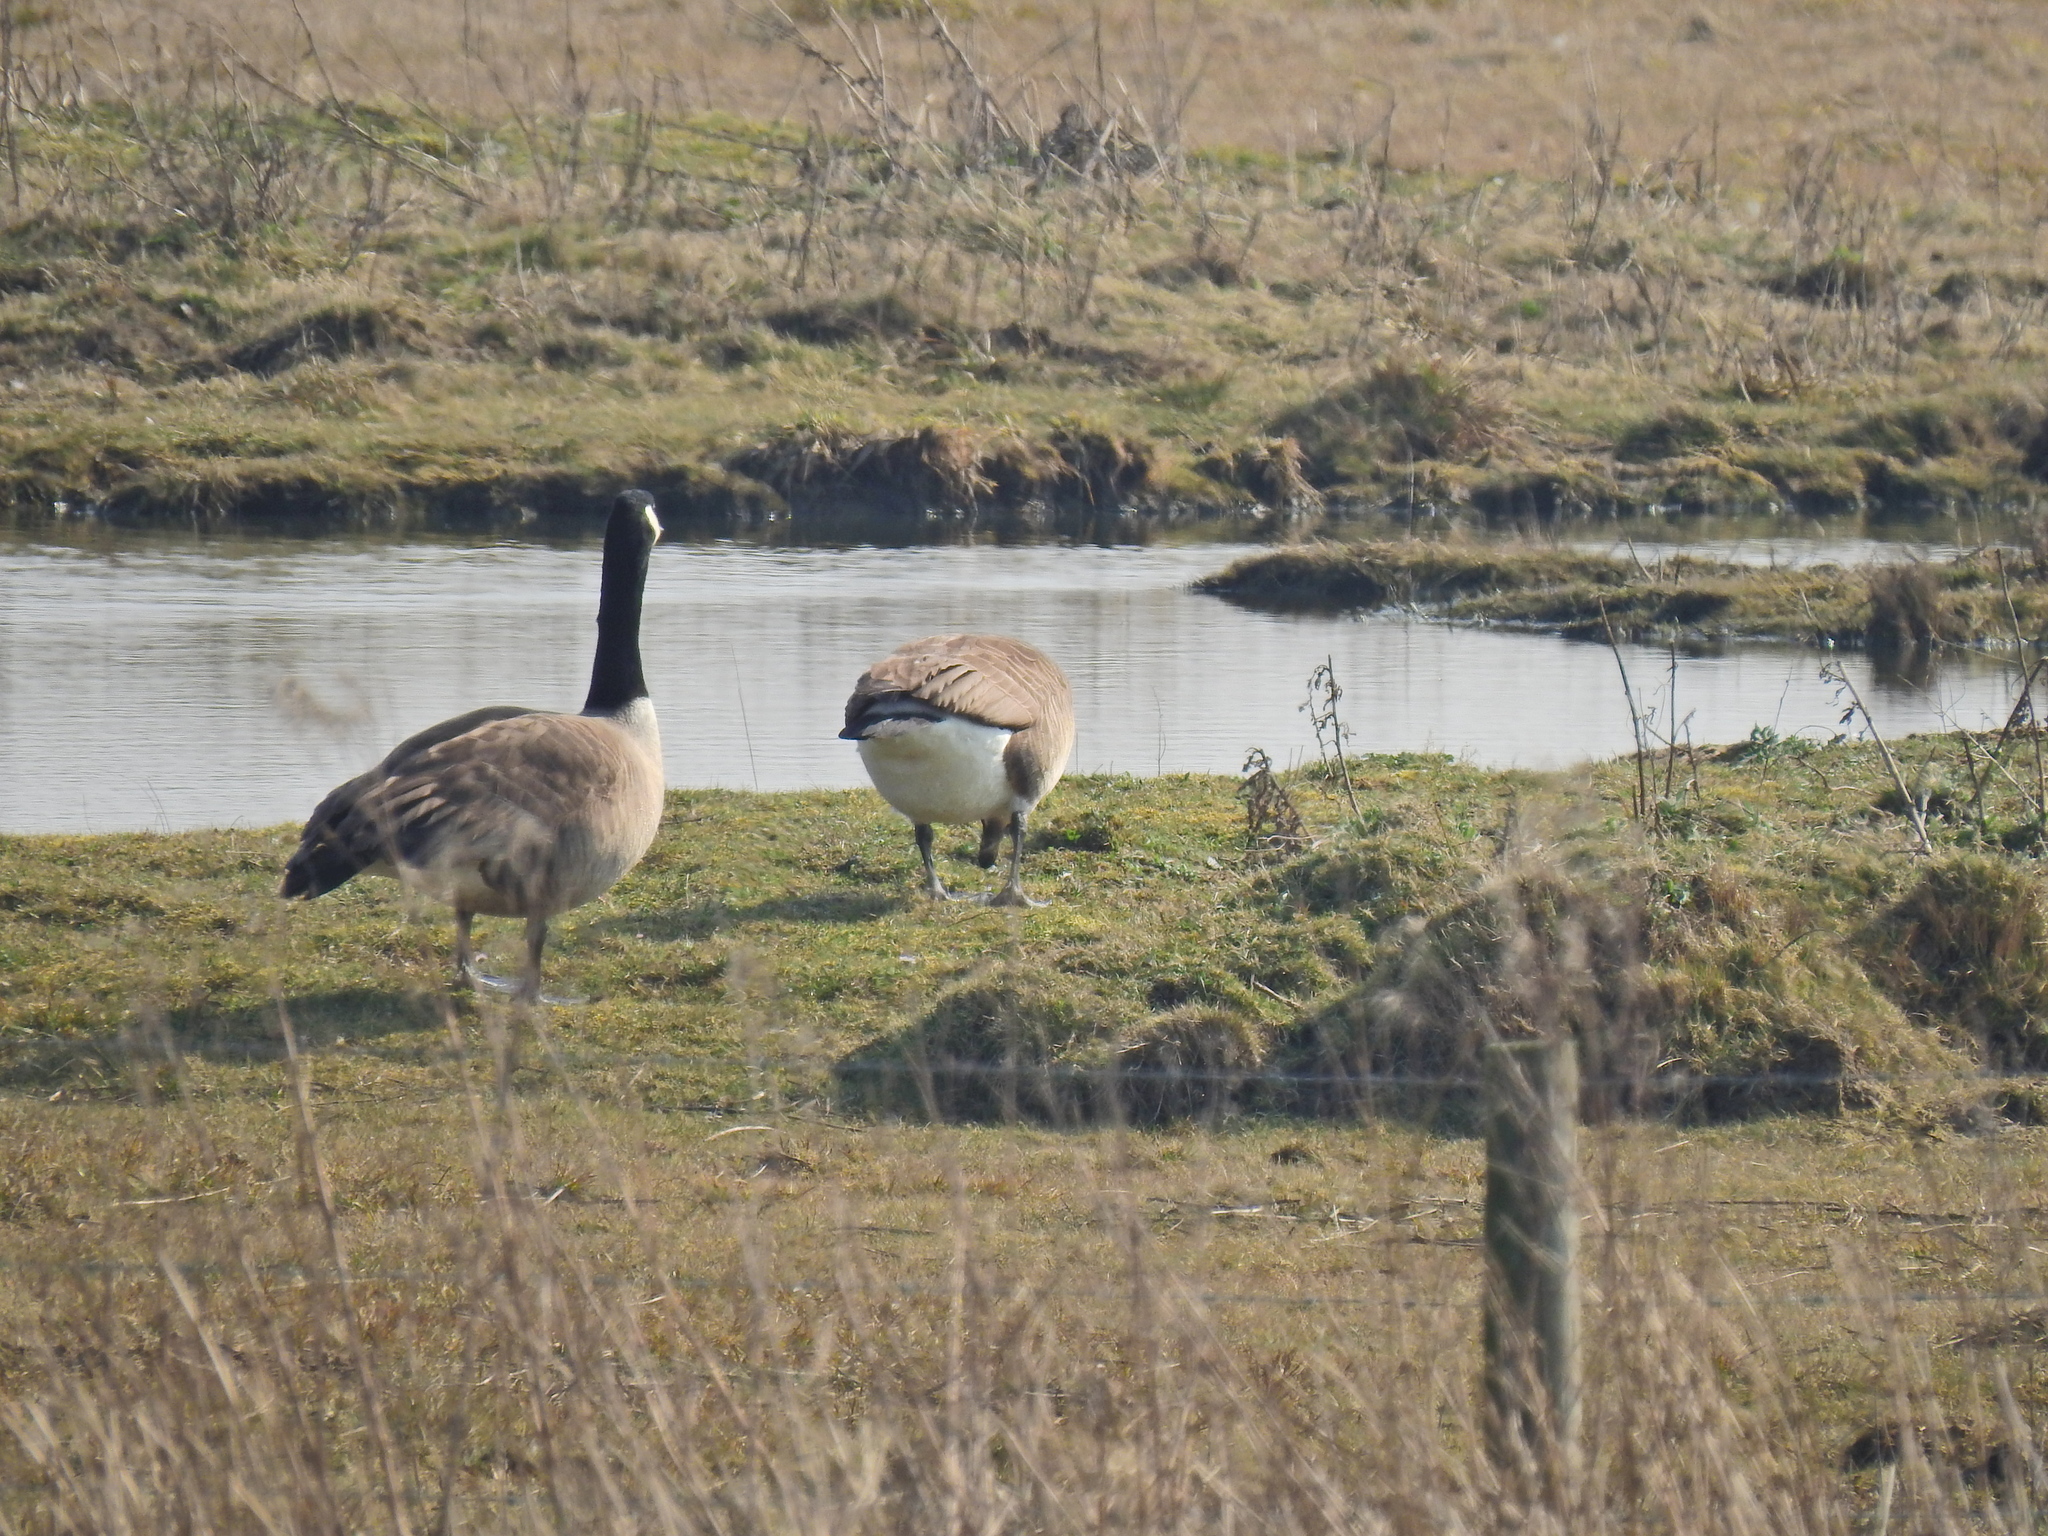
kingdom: Animalia
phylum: Chordata
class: Aves
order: Anseriformes
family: Anatidae
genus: Branta
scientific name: Branta canadensis
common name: Canada goose
